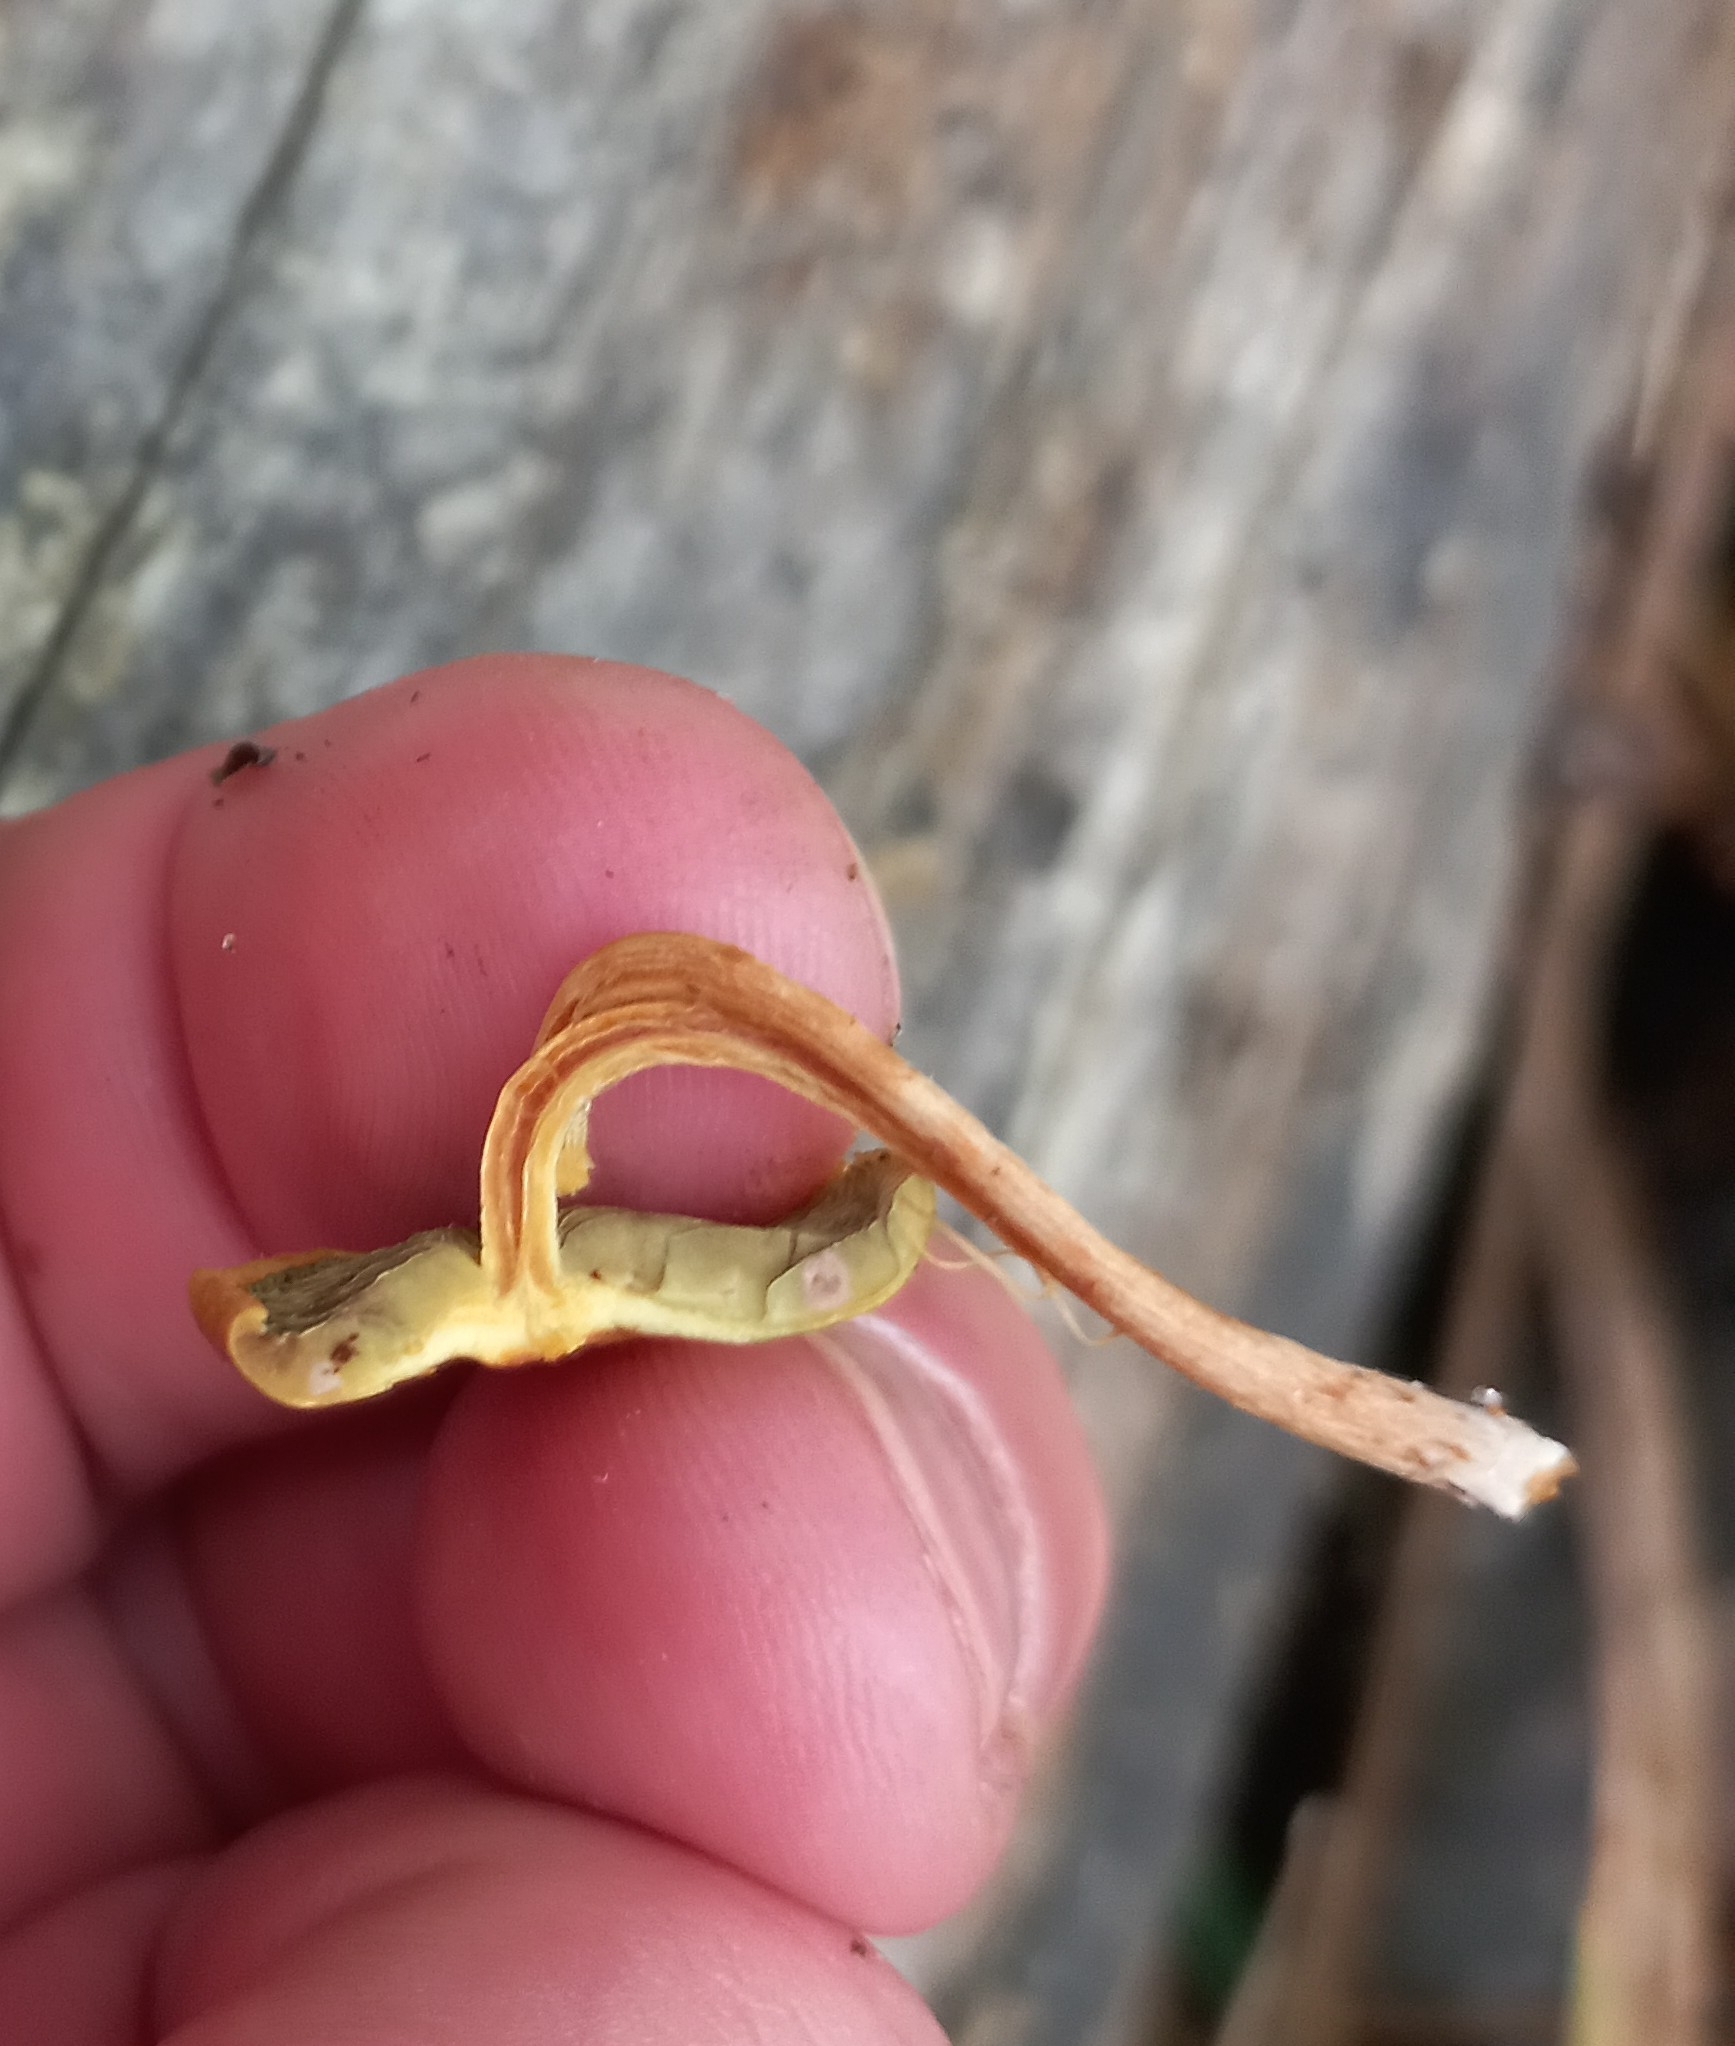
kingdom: Fungi
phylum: Basidiomycota
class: Agaricomycetes
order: Agaricales
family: Strophariaceae
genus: Hypholoma
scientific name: Hypholoma acutum
